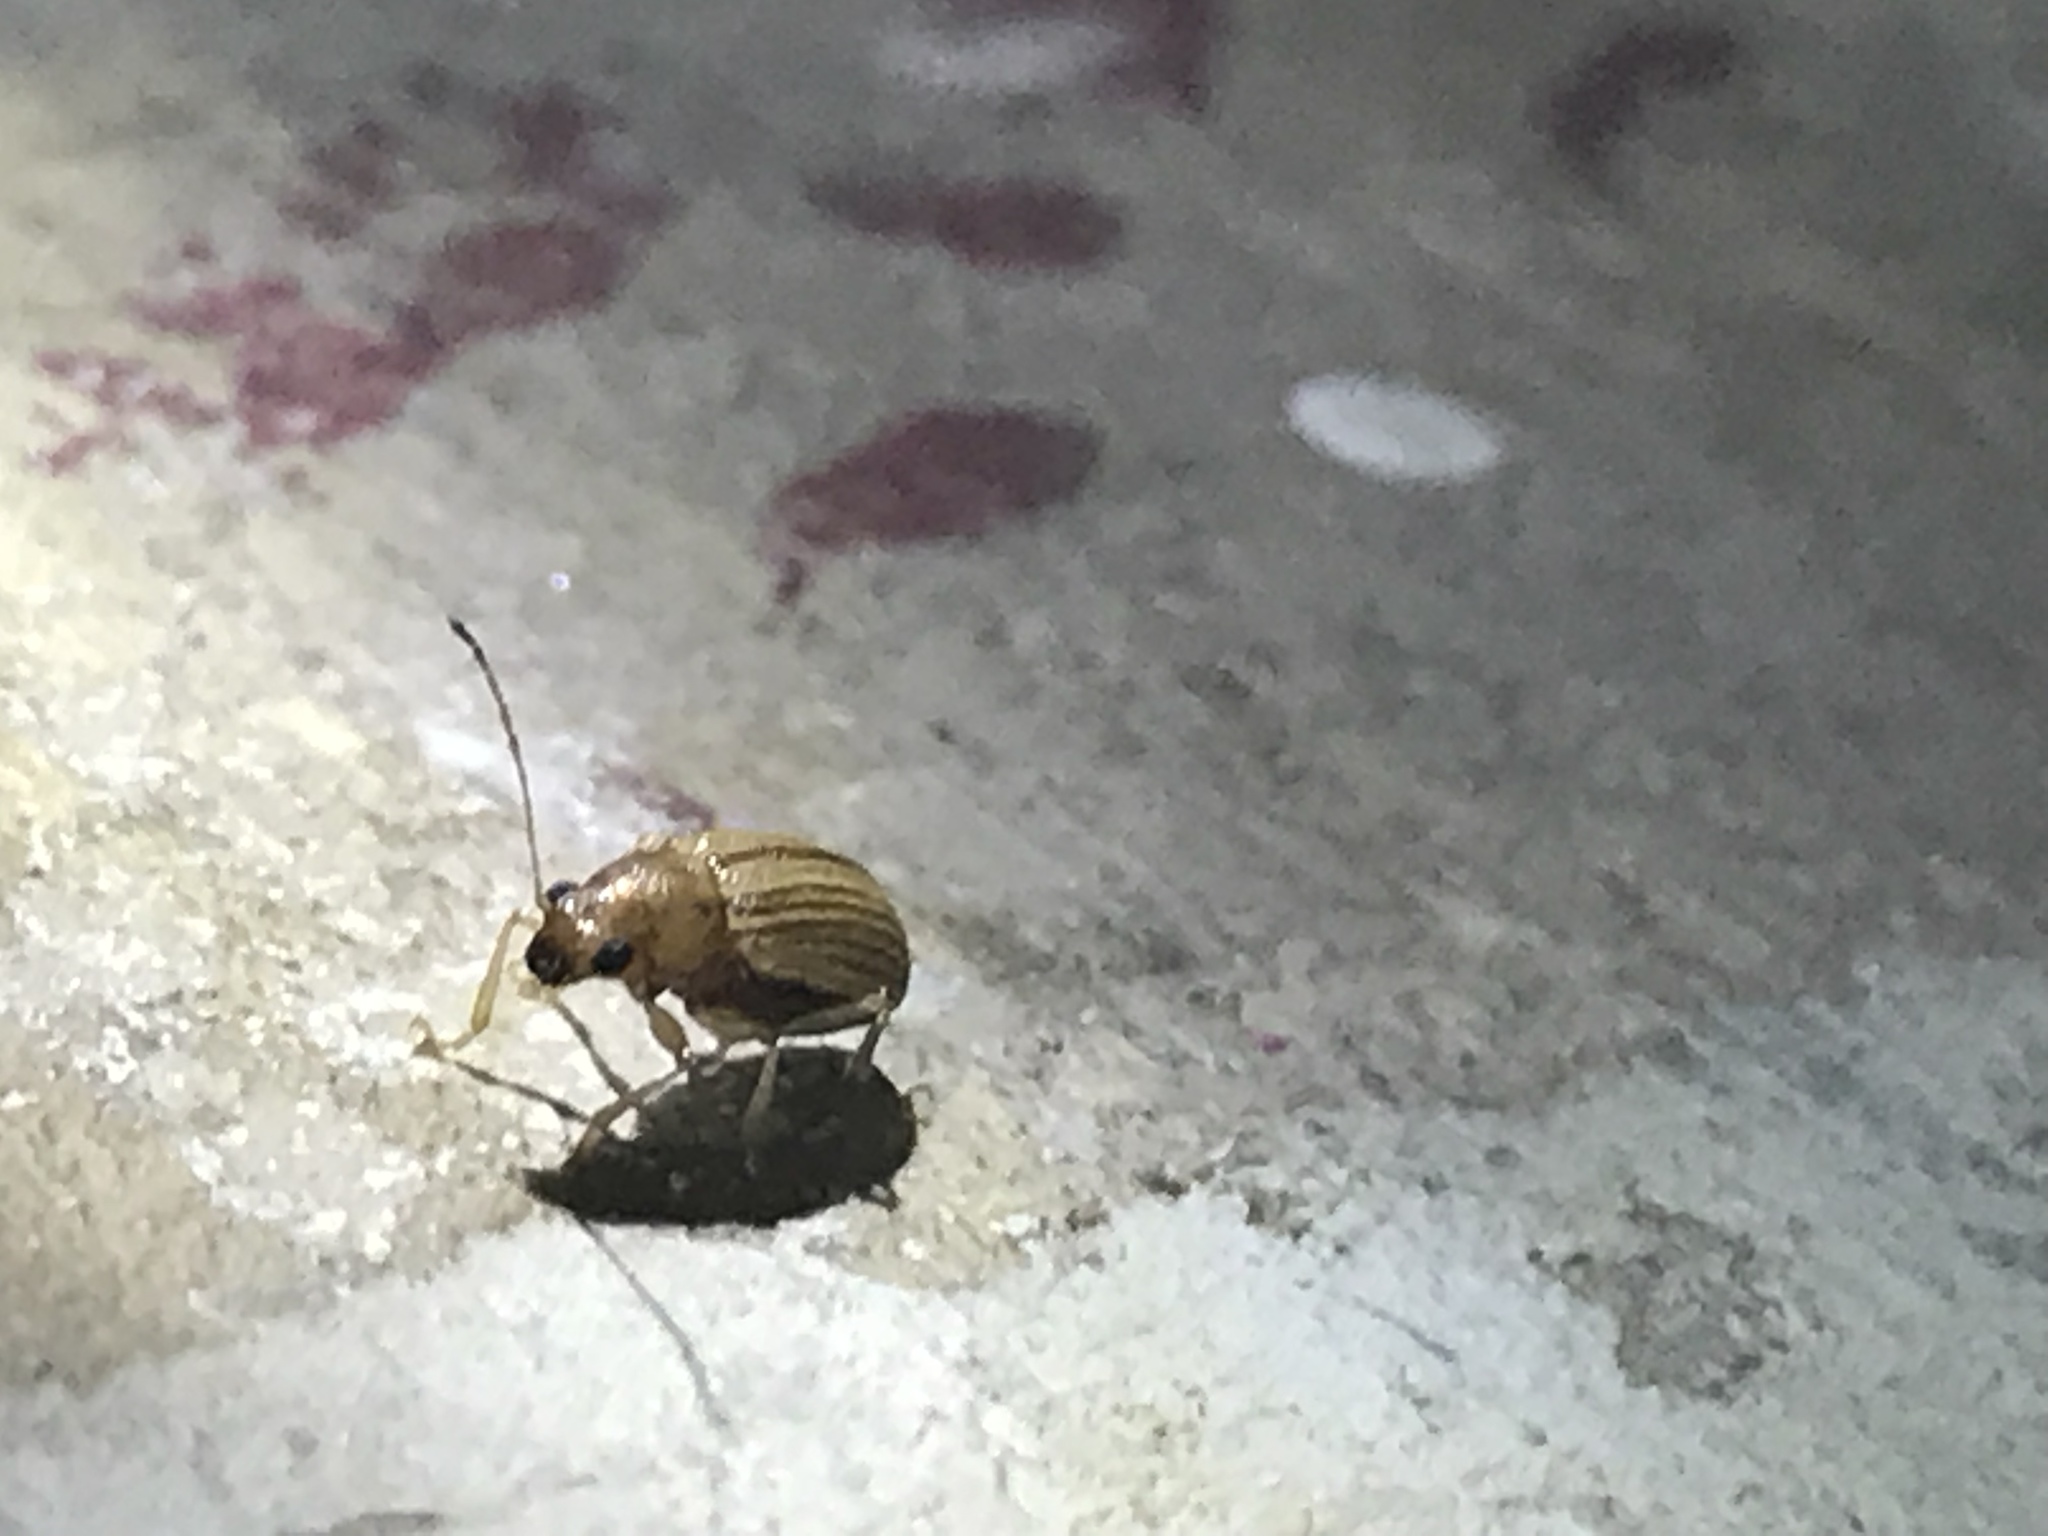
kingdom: Animalia
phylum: Arthropoda
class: Insecta
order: Coleoptera
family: Chrysomelidae
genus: Colaspis
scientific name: Colaspis brunnea
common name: Grape colaspis
